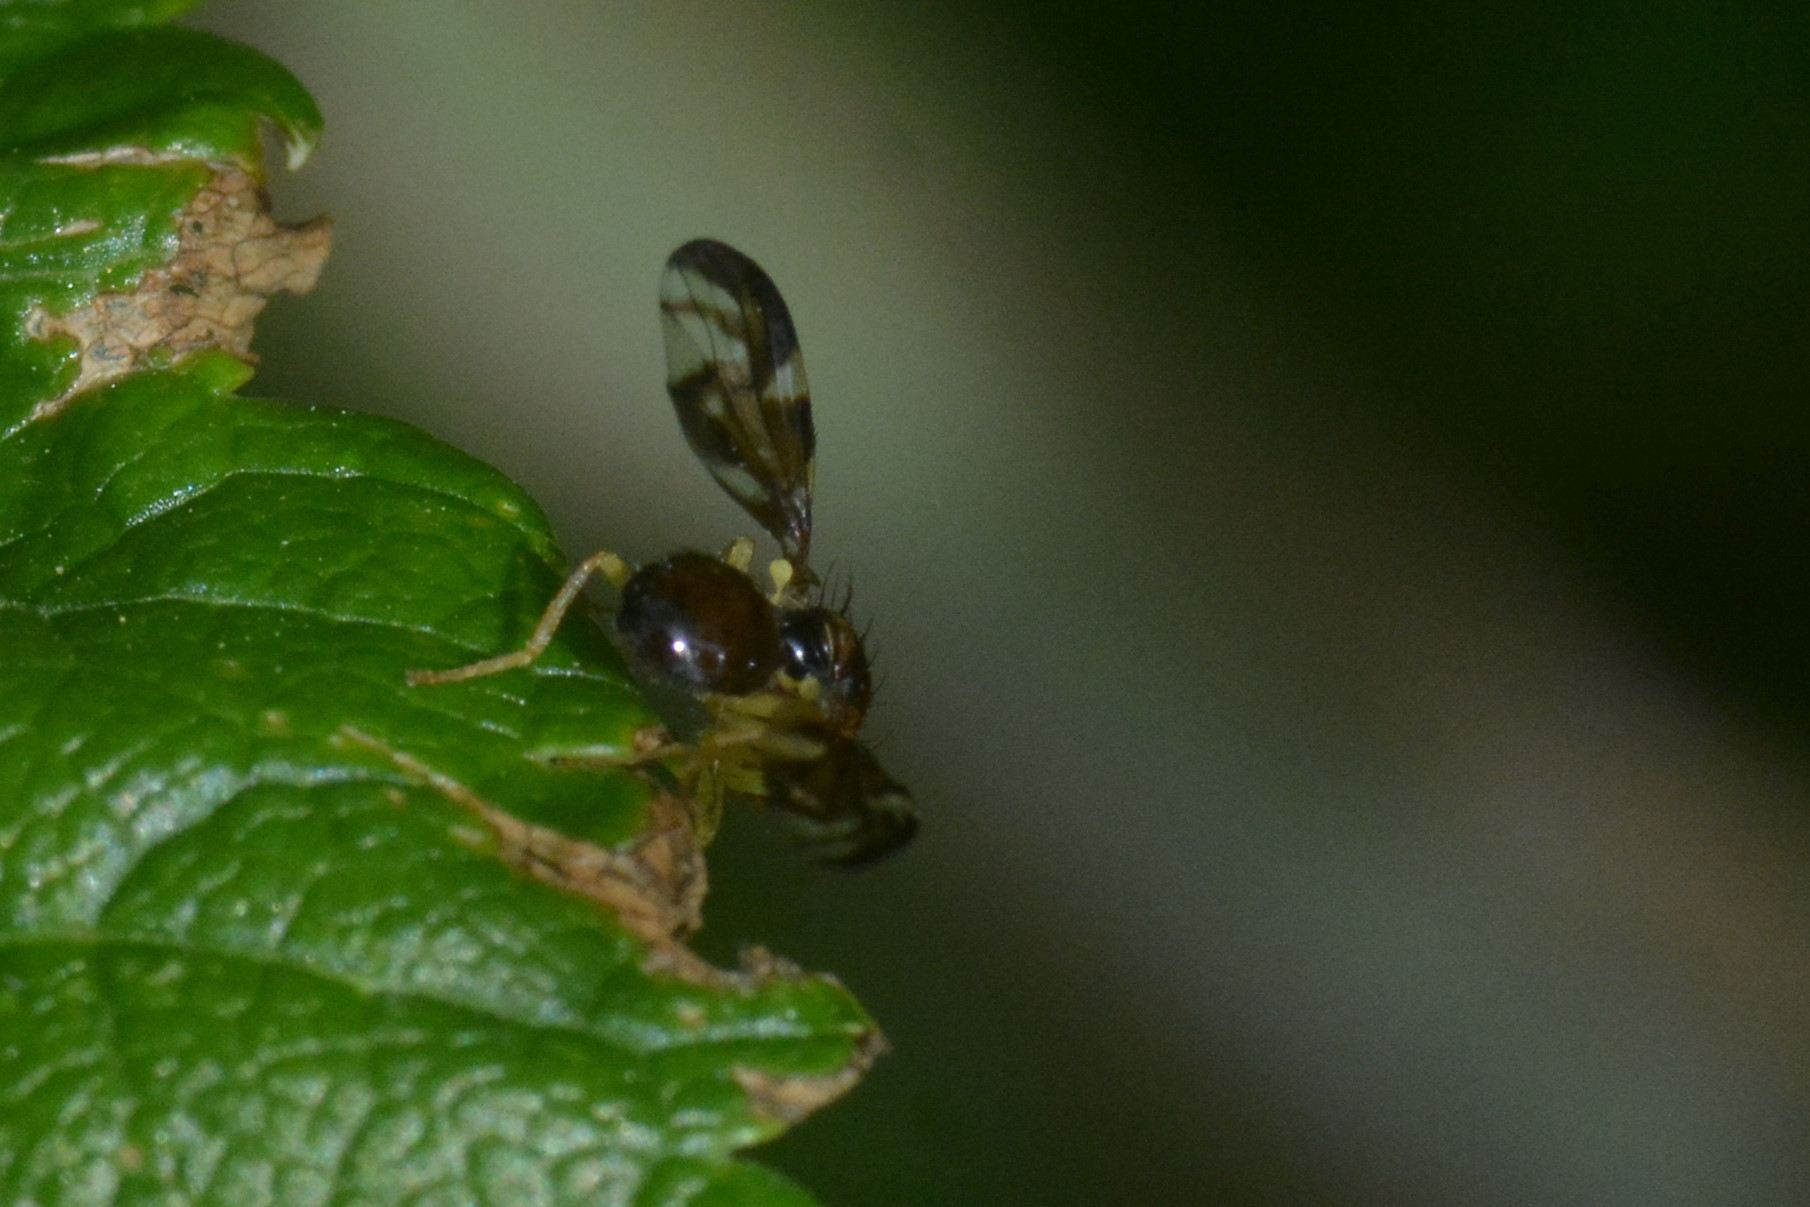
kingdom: Animalia
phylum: Arthropoda
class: Insecta
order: Diptera
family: Tephritidae
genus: Euleia
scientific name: Euleia heraclei
